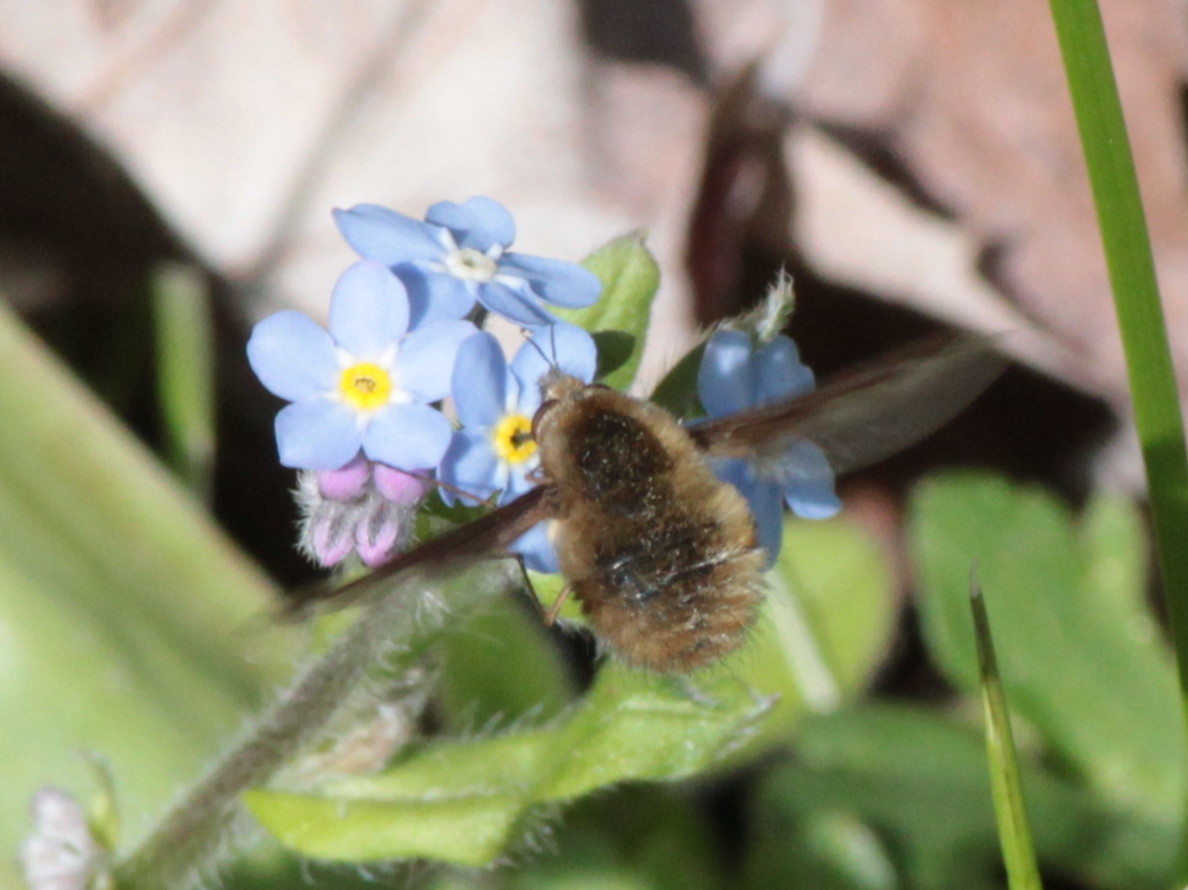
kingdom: Animalia
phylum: Arthropoda
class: Insecta
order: Diptera
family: Bombyliidae
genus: Bombylius
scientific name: Bombylius major
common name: Bee fly
